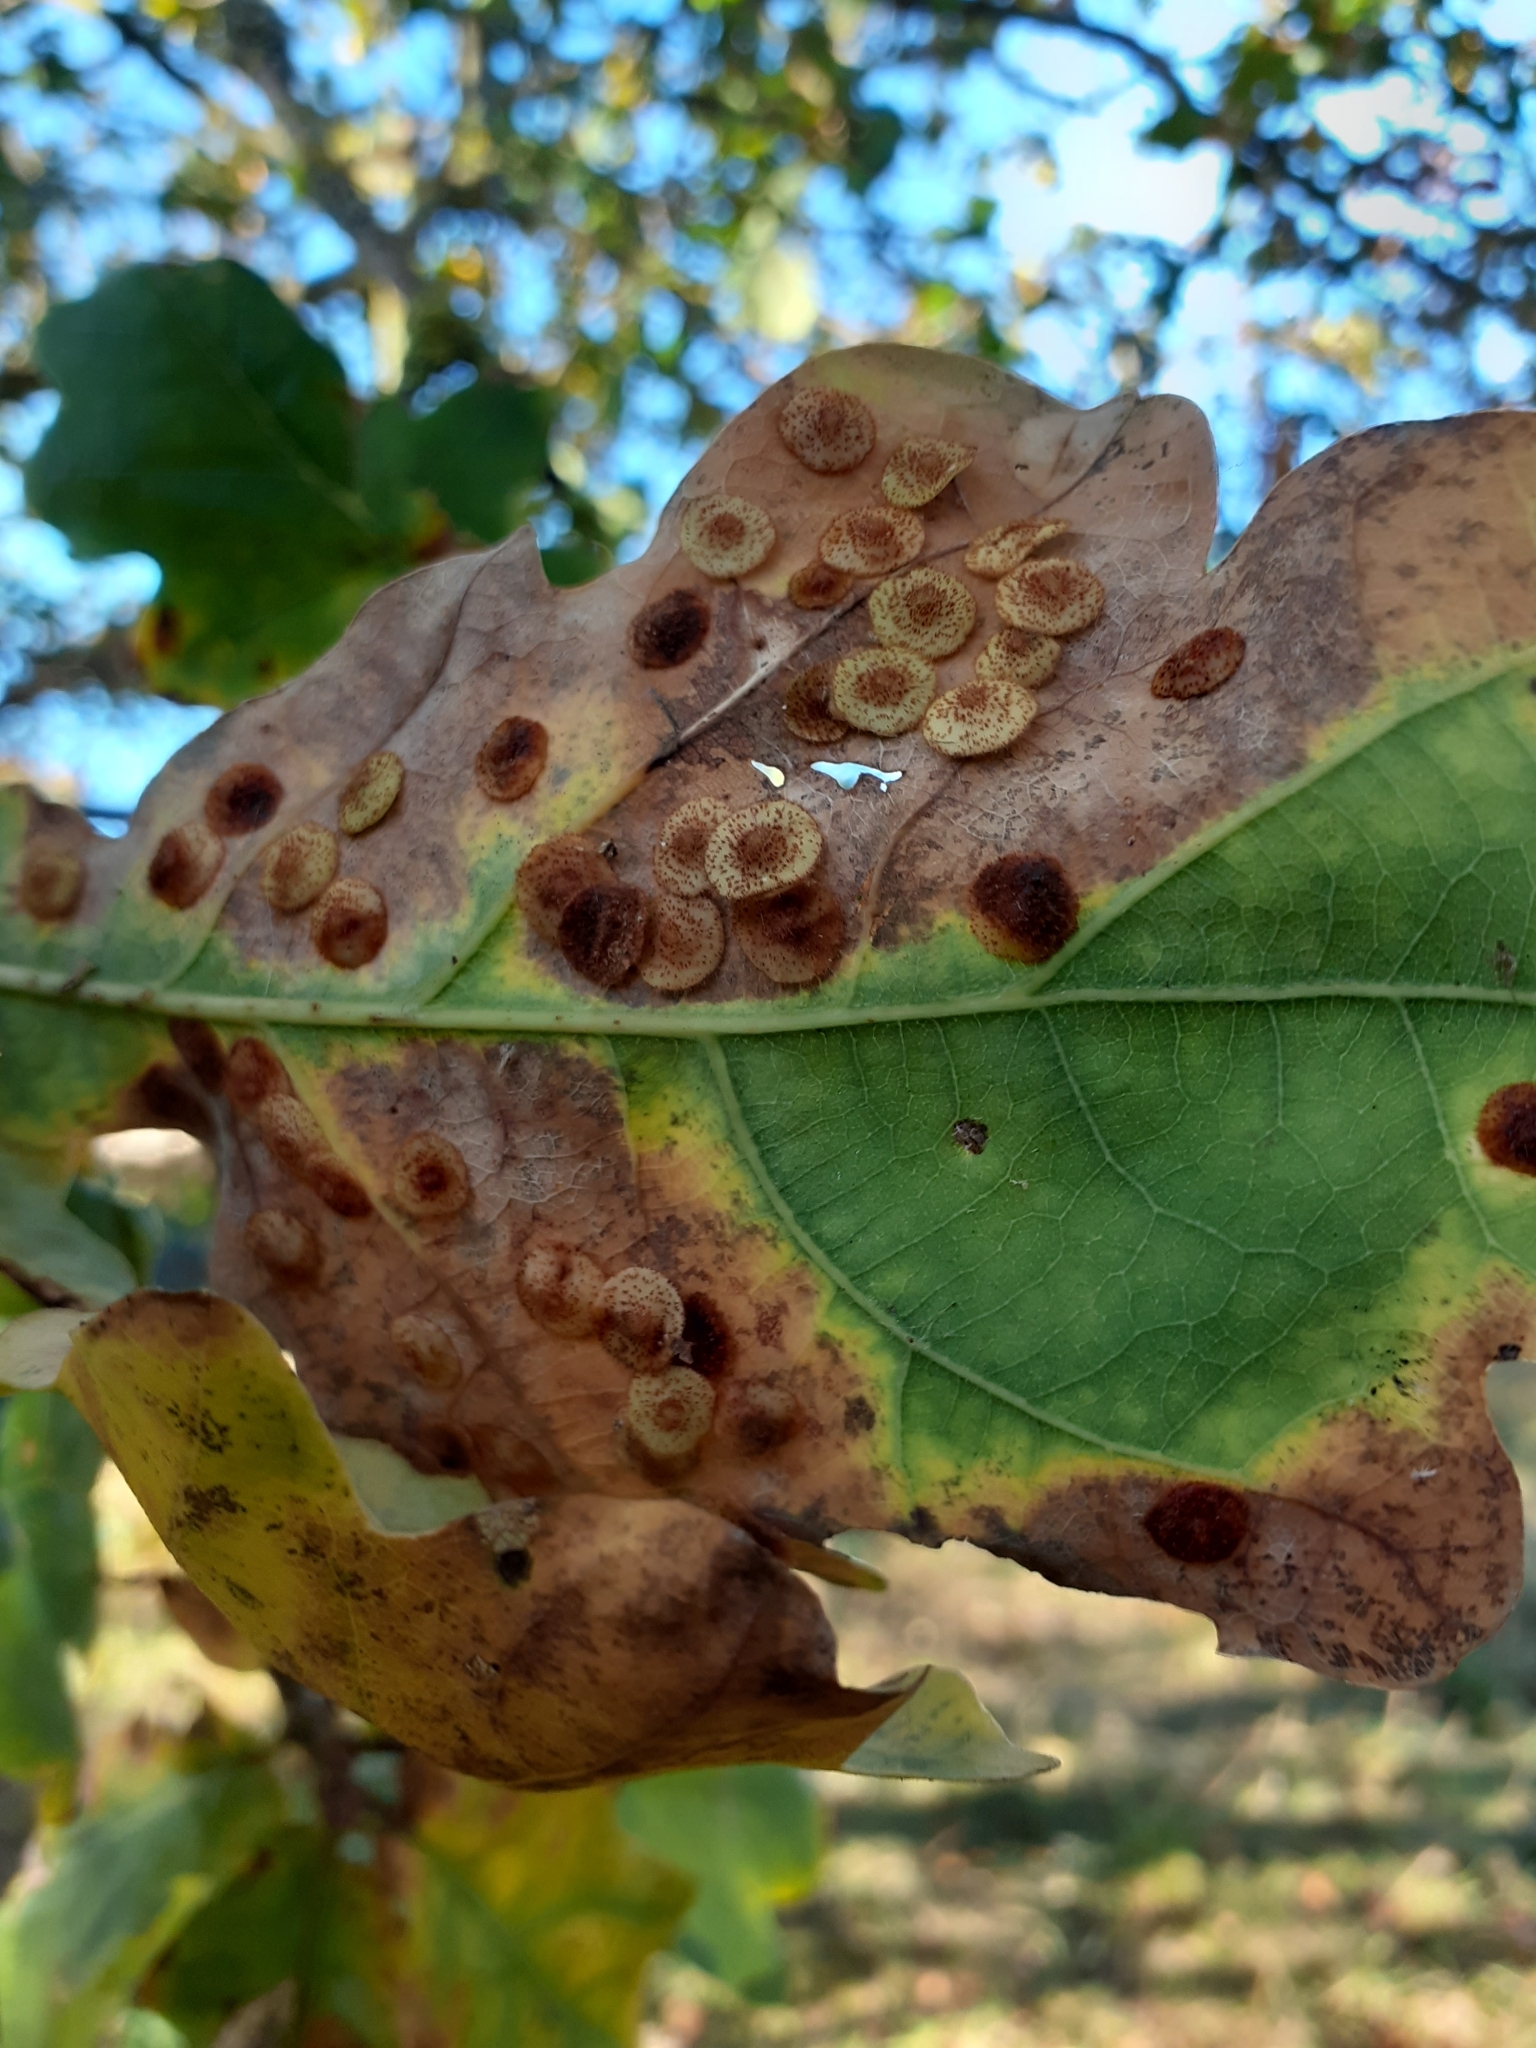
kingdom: Animalia
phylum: Arthropoda
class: Insecta
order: Hymenoptera
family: Cynipidae
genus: Neuroterus
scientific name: Neuroterus quercusbaccarum
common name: Common spangle gall
